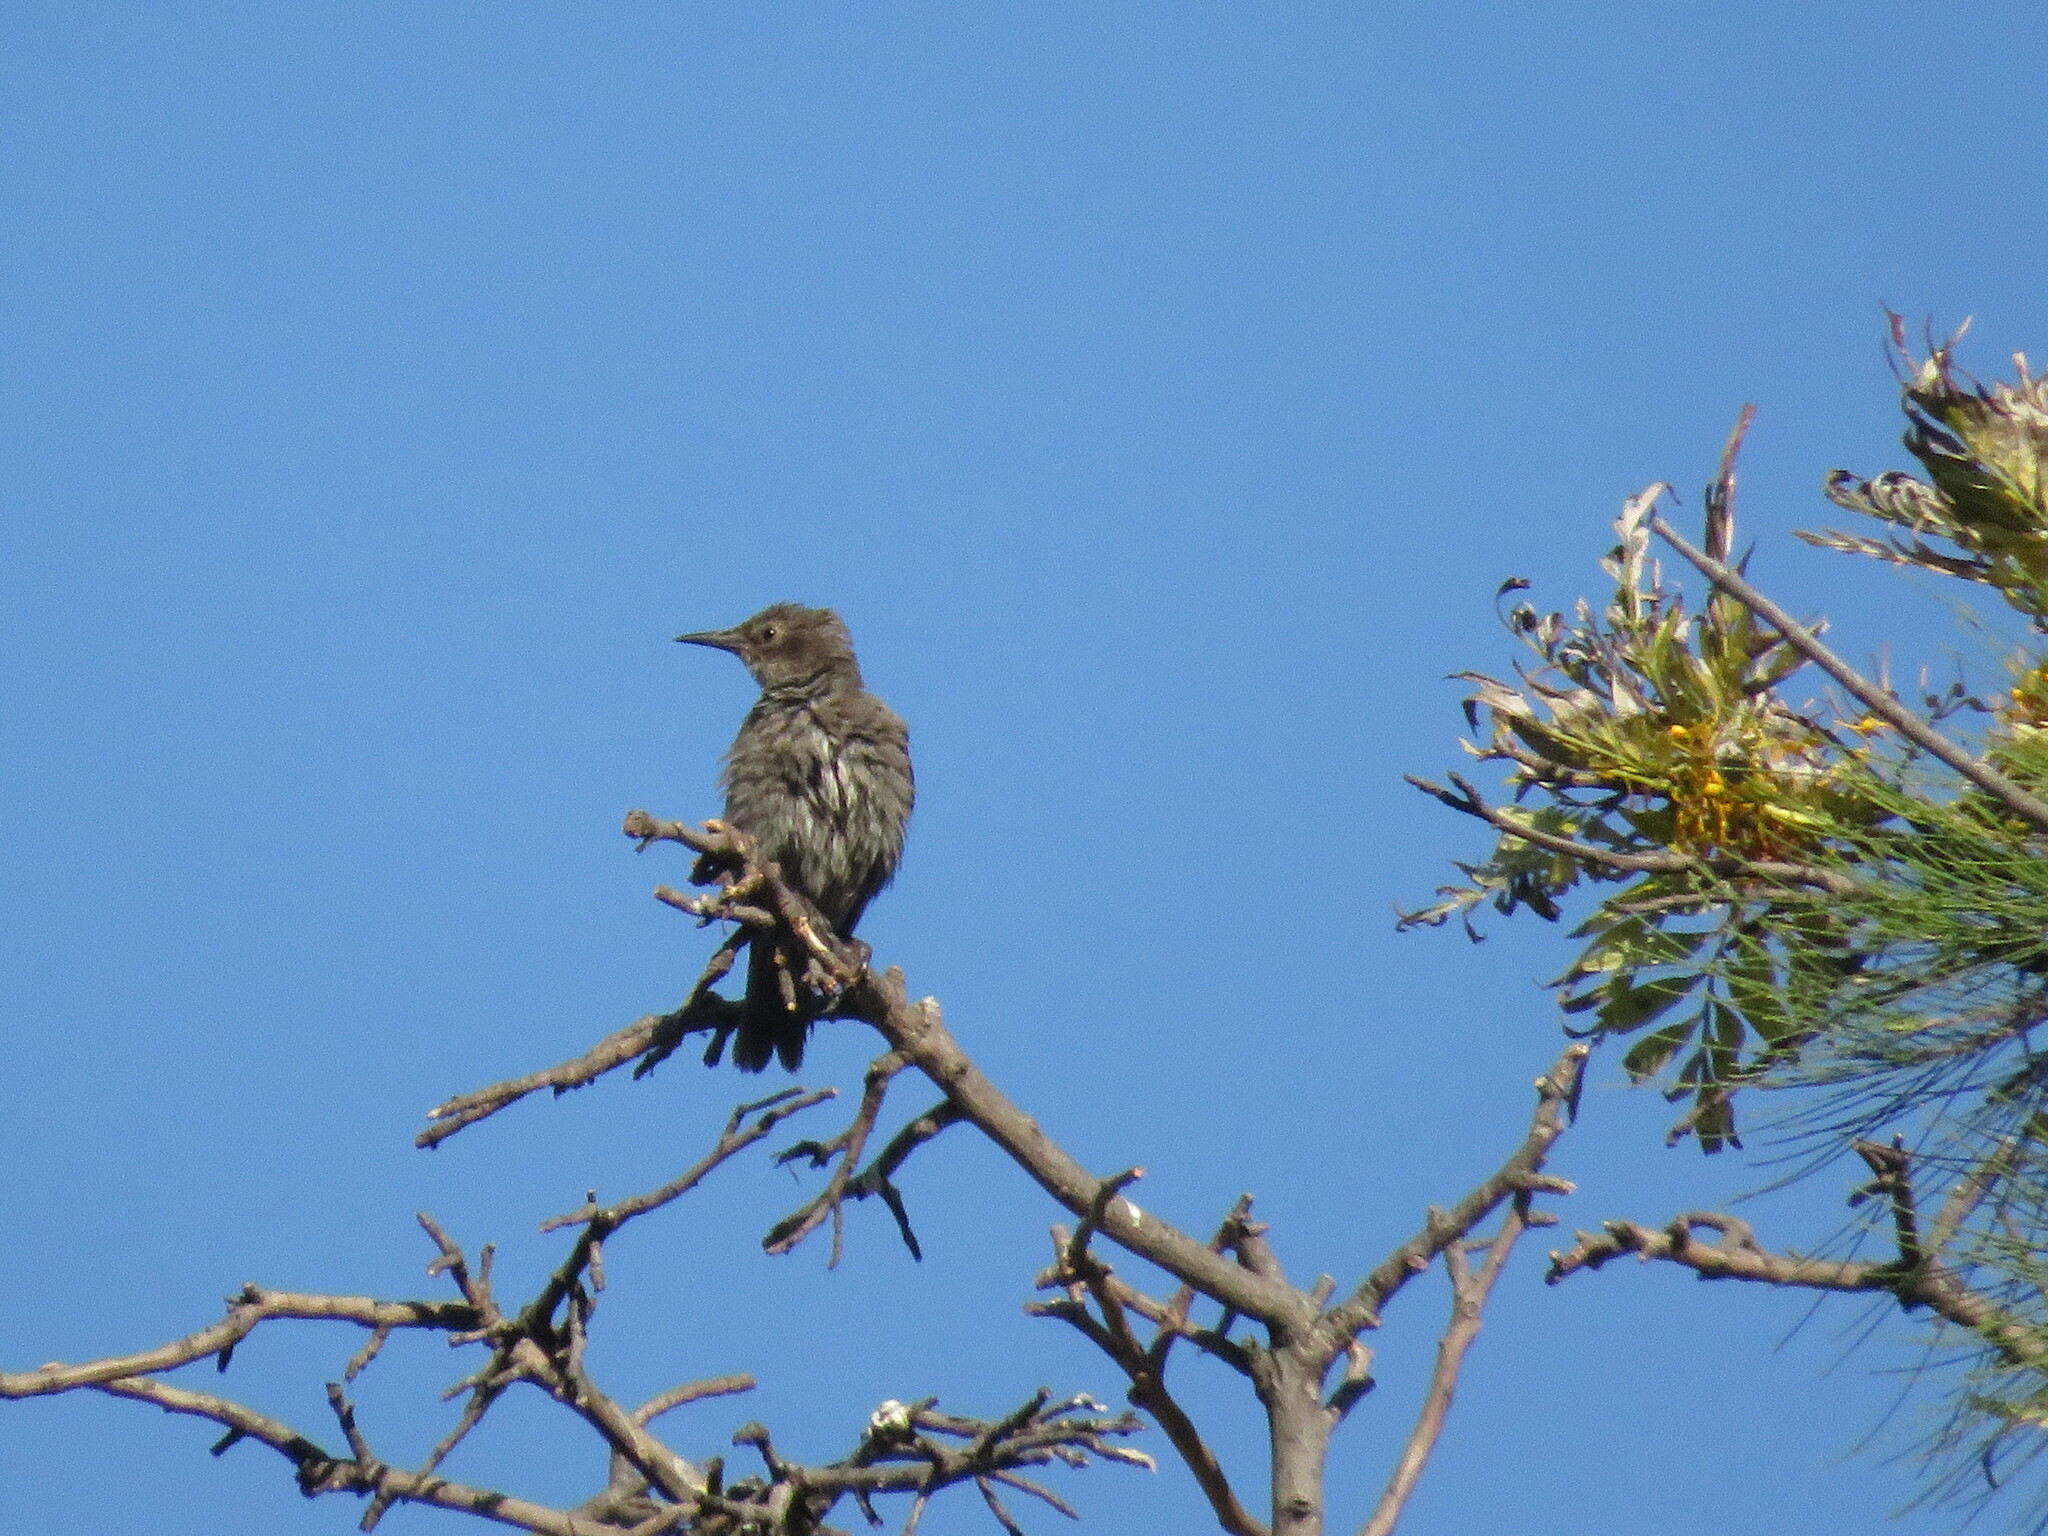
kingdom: Animalia
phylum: Chordata
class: Aves
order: Passeriformes
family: Sturnidae
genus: Sturnus
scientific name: Sturnus vulgaris
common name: Common starling
